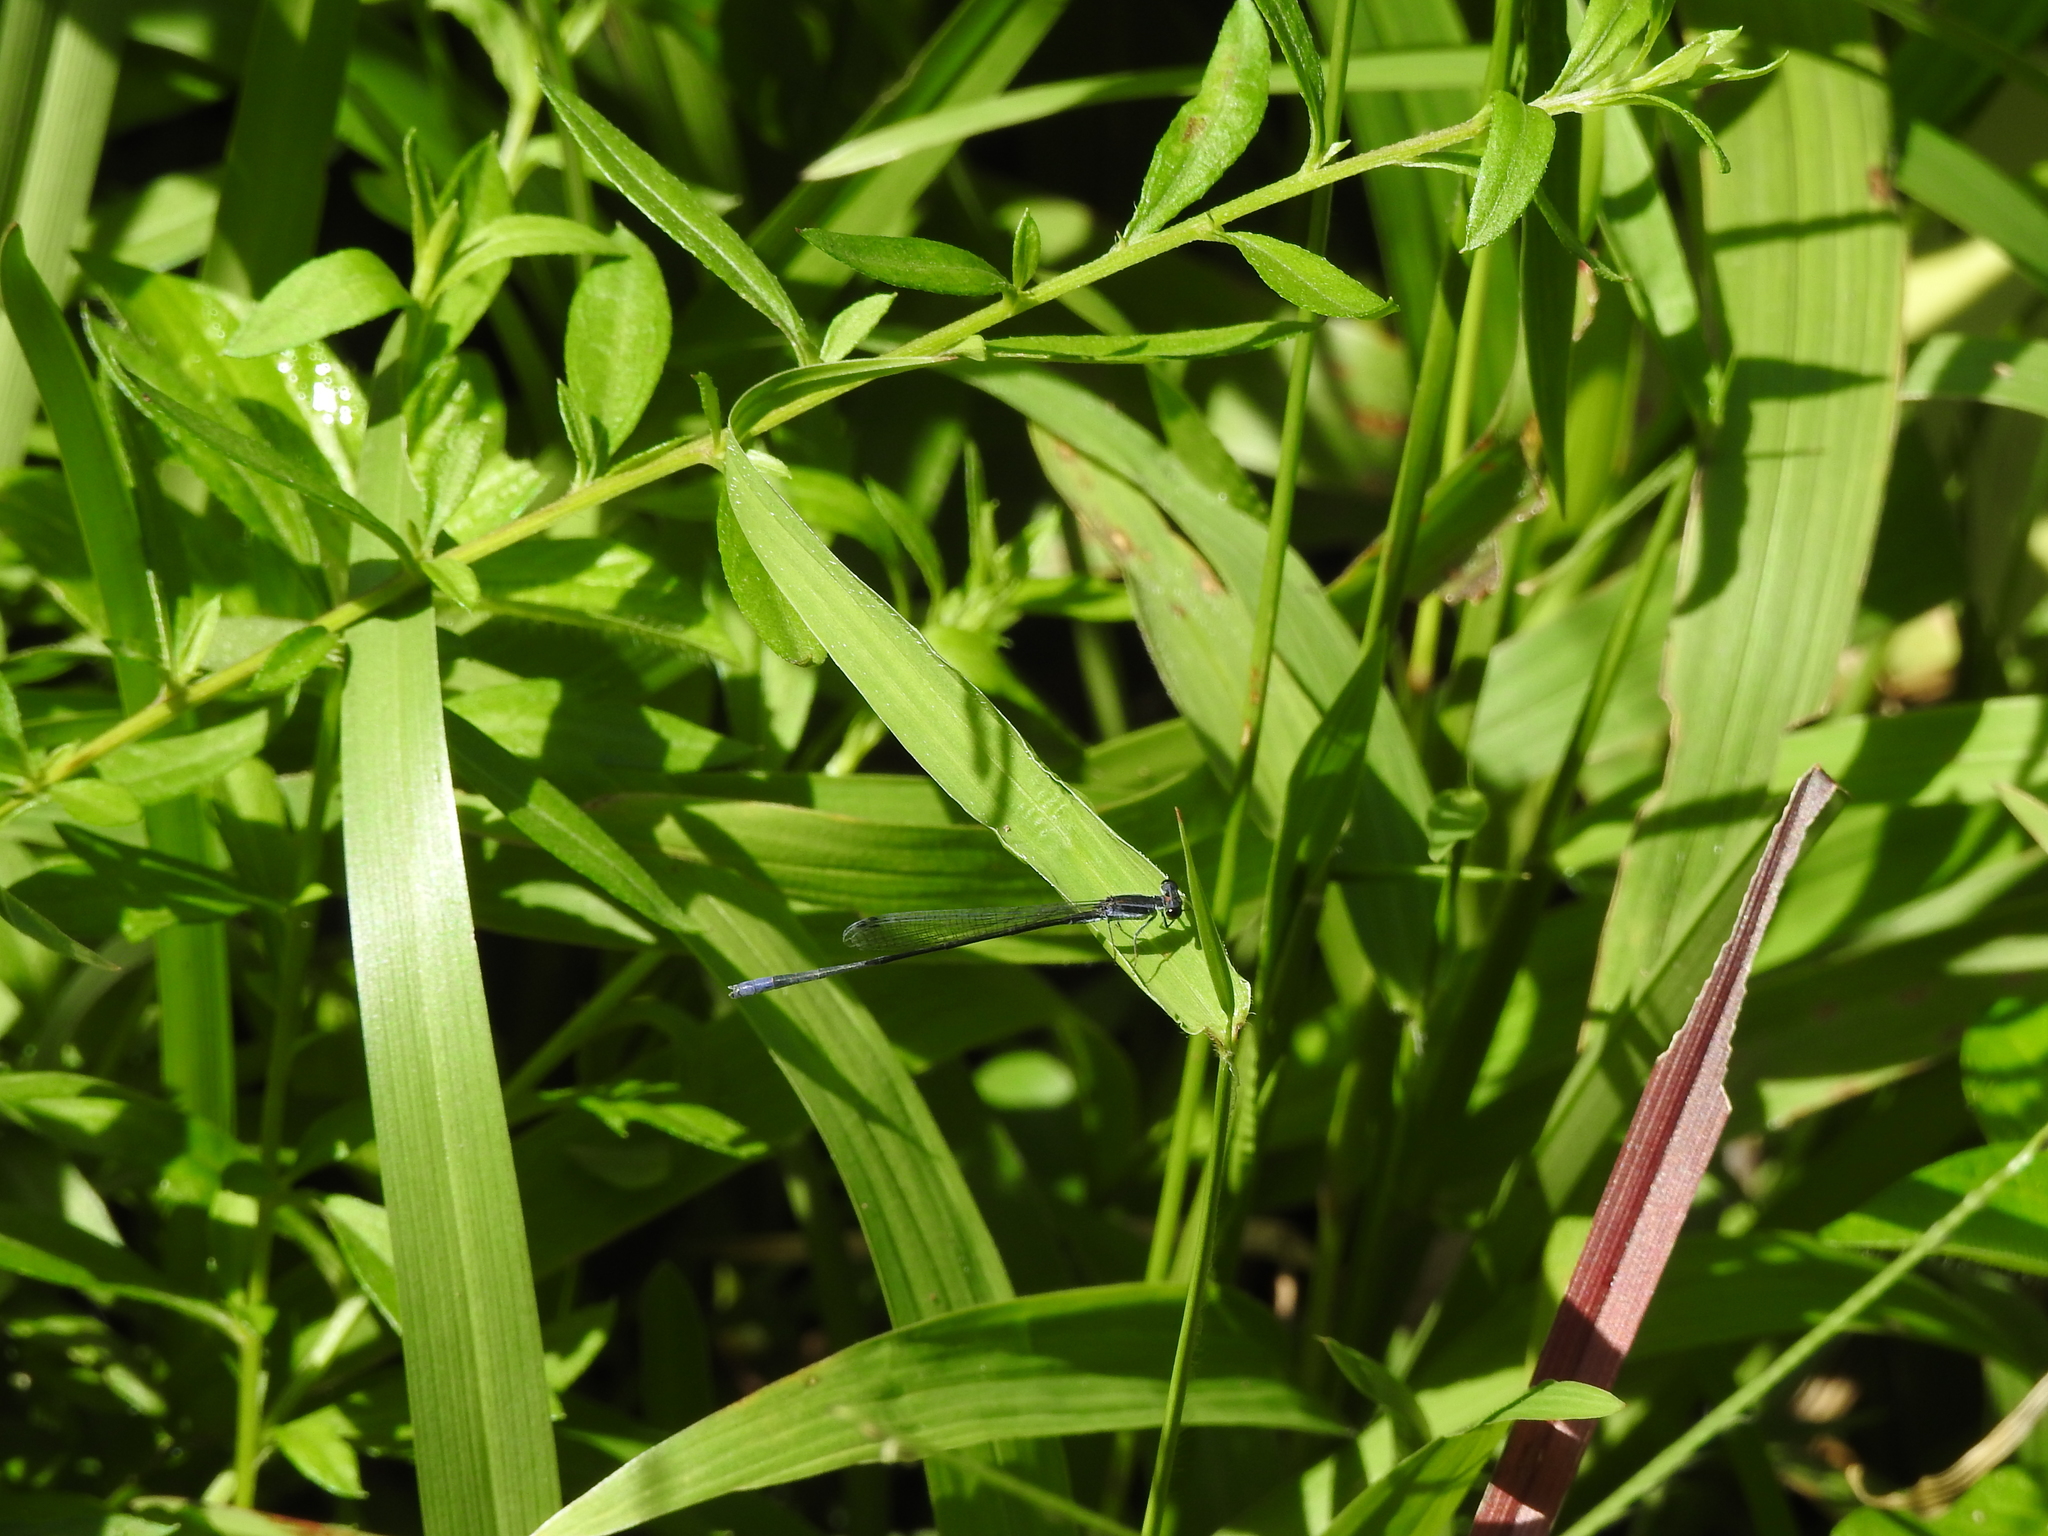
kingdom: Animalia
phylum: Arthropoda
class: Insecta
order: Odonata
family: Coenagrionidae
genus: Aciagrion
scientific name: Aciagrion approximans
